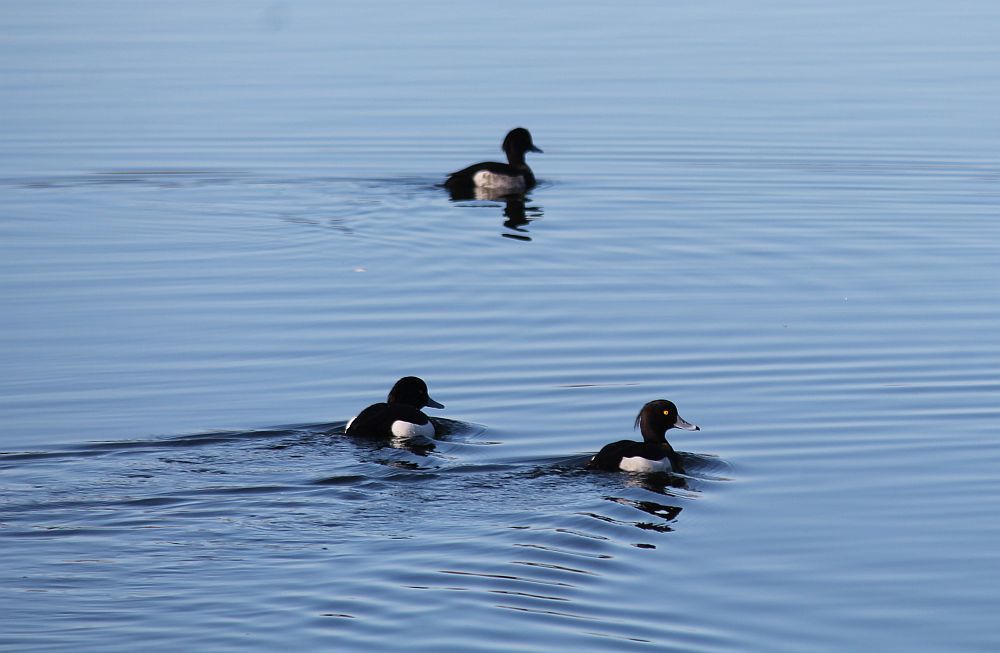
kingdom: Animalia
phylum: Chordata
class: Aves
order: Anseriformes
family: Anatidae
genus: Aythya
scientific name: Aythya fuligula
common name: Tufted duck
